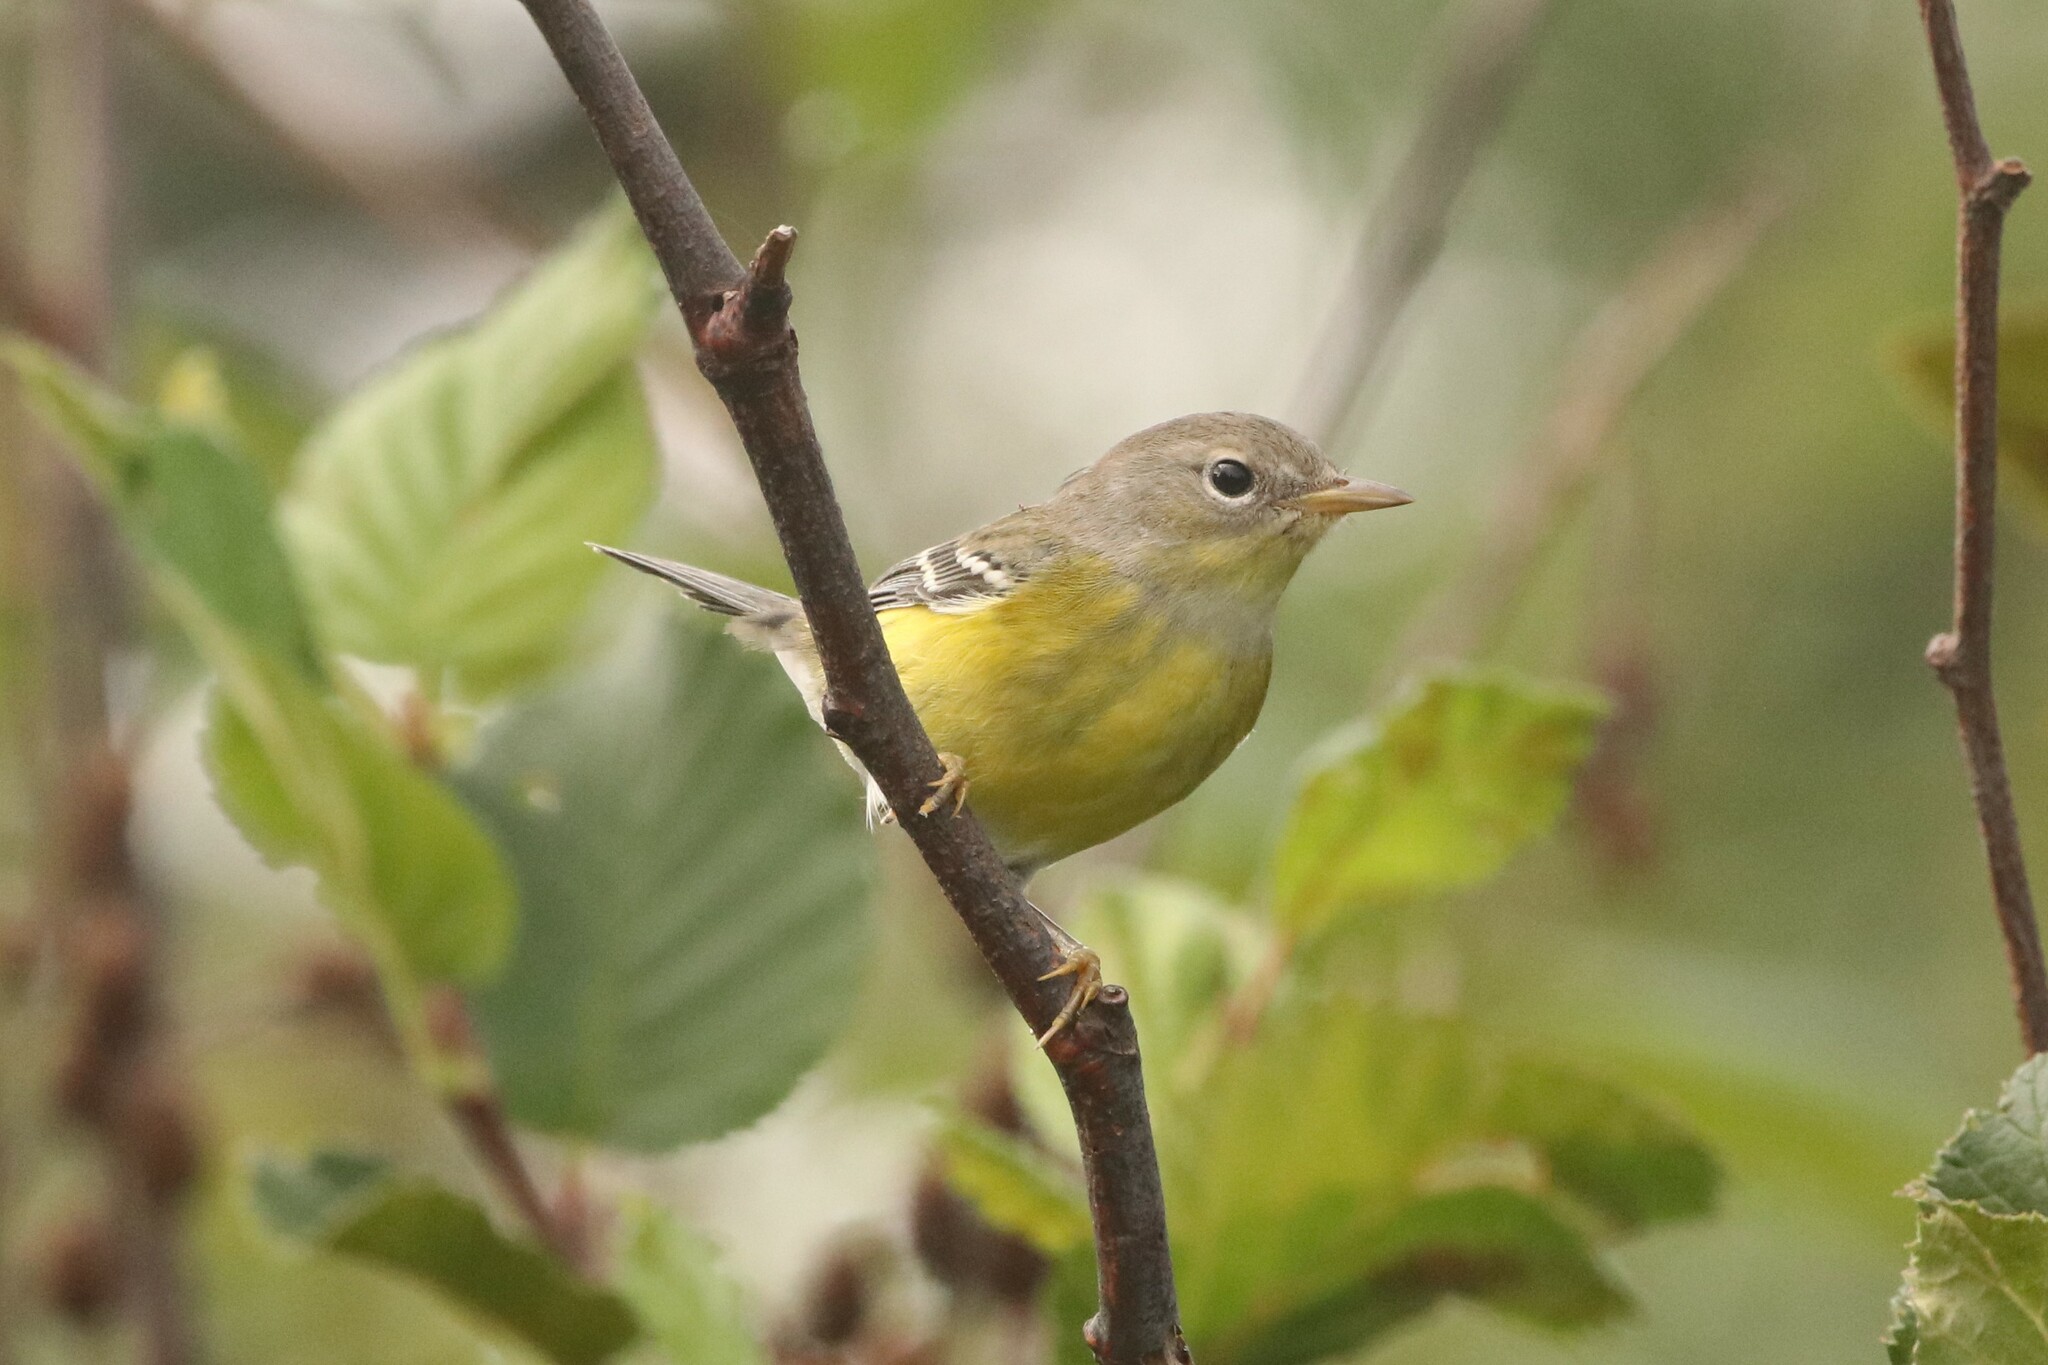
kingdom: Animalia
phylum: Chordata
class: Aves
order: Passeriformes
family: Parulidae
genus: Setophaga
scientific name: Setophaga magnolia
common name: Magnolia warbler
